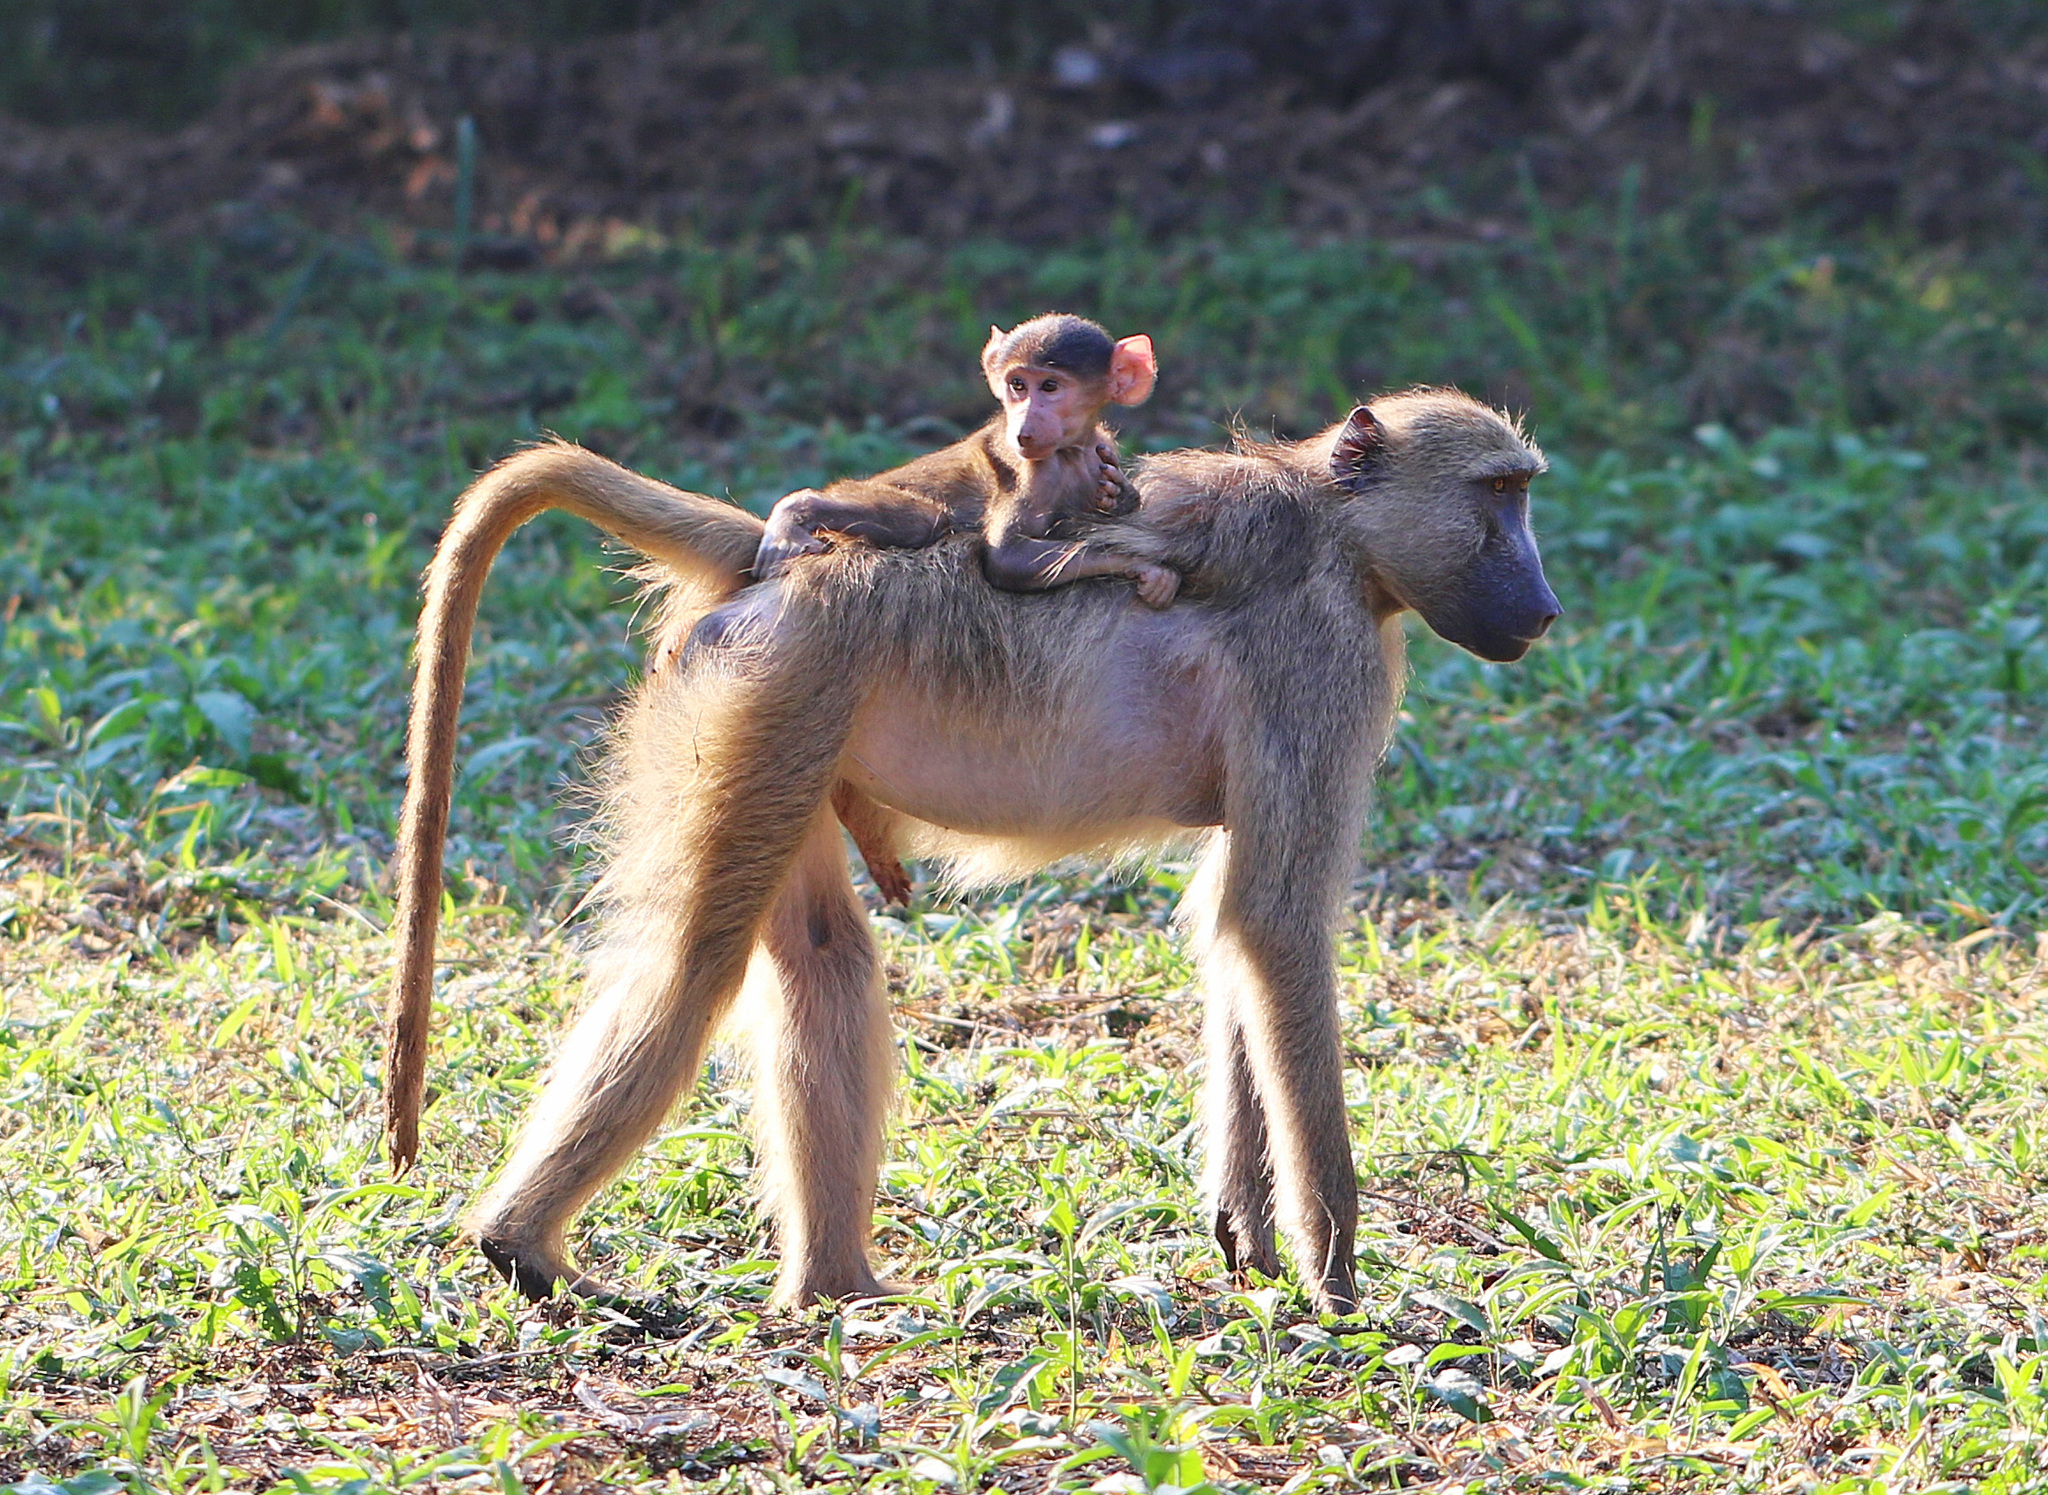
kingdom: Animalia
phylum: Chordata
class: Mammalia
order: Primates
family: Cercopithecidae
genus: Papio
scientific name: Papio ursinus
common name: Chacma baboon
